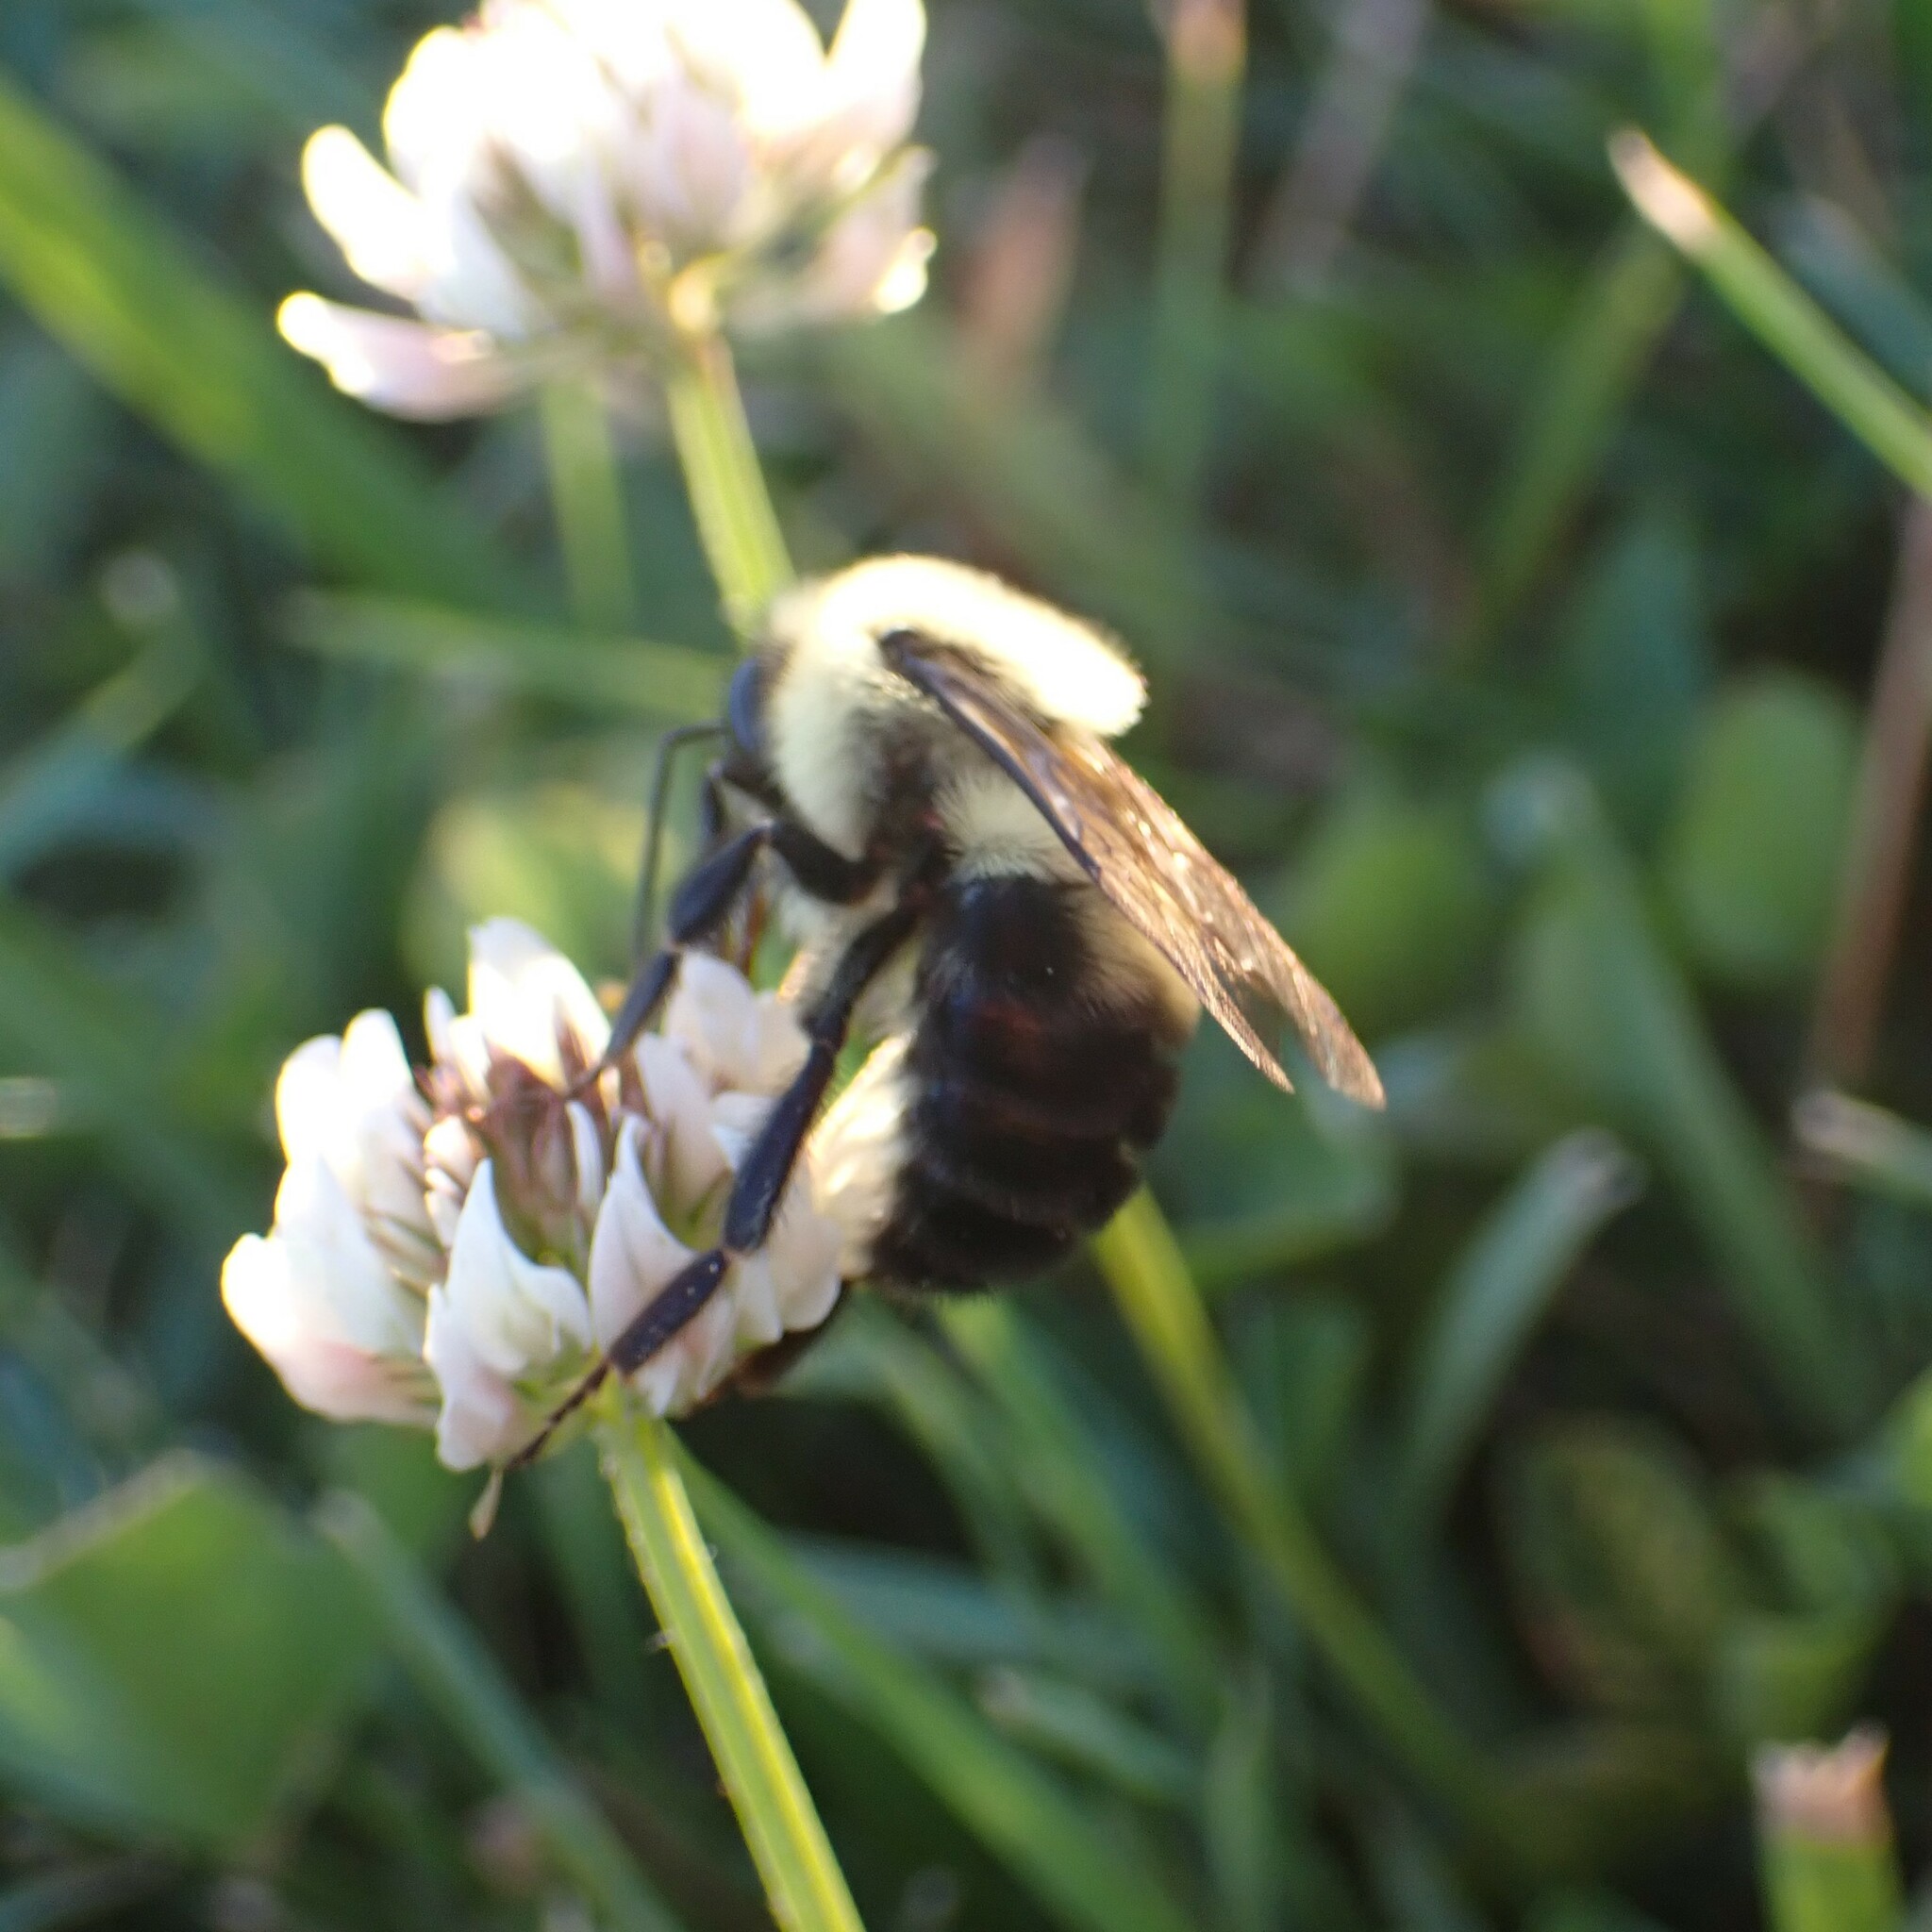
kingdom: Animalia
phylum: Arthropoda
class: Insecta
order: Hymenoptera
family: Apidae
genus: Bombus
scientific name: Bombus bimaculatus
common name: Two-spotted bumble bee
